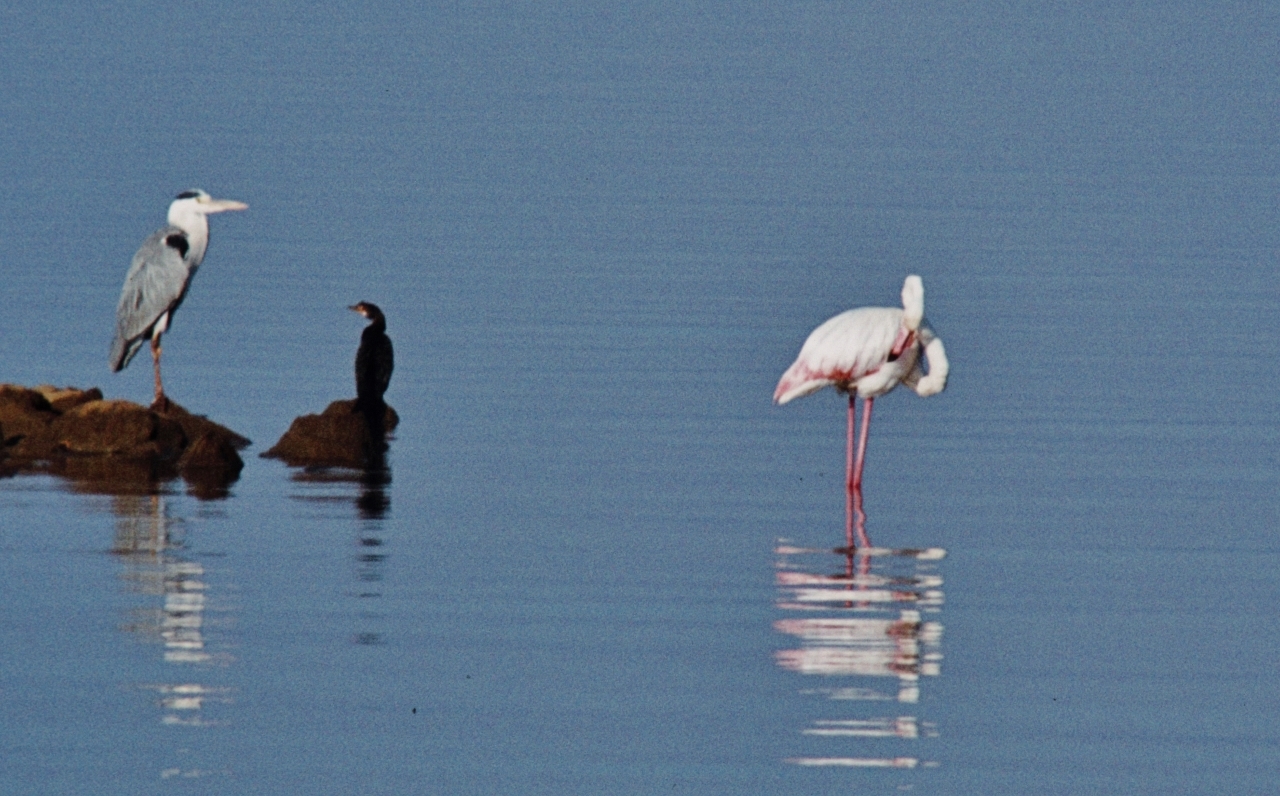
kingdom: Animalia
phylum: Chordata
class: Aves
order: Suliformes
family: Phalacrocoracidae
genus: Microcarbo
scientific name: Microcarbo africanus
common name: Long-tailed cormorant
